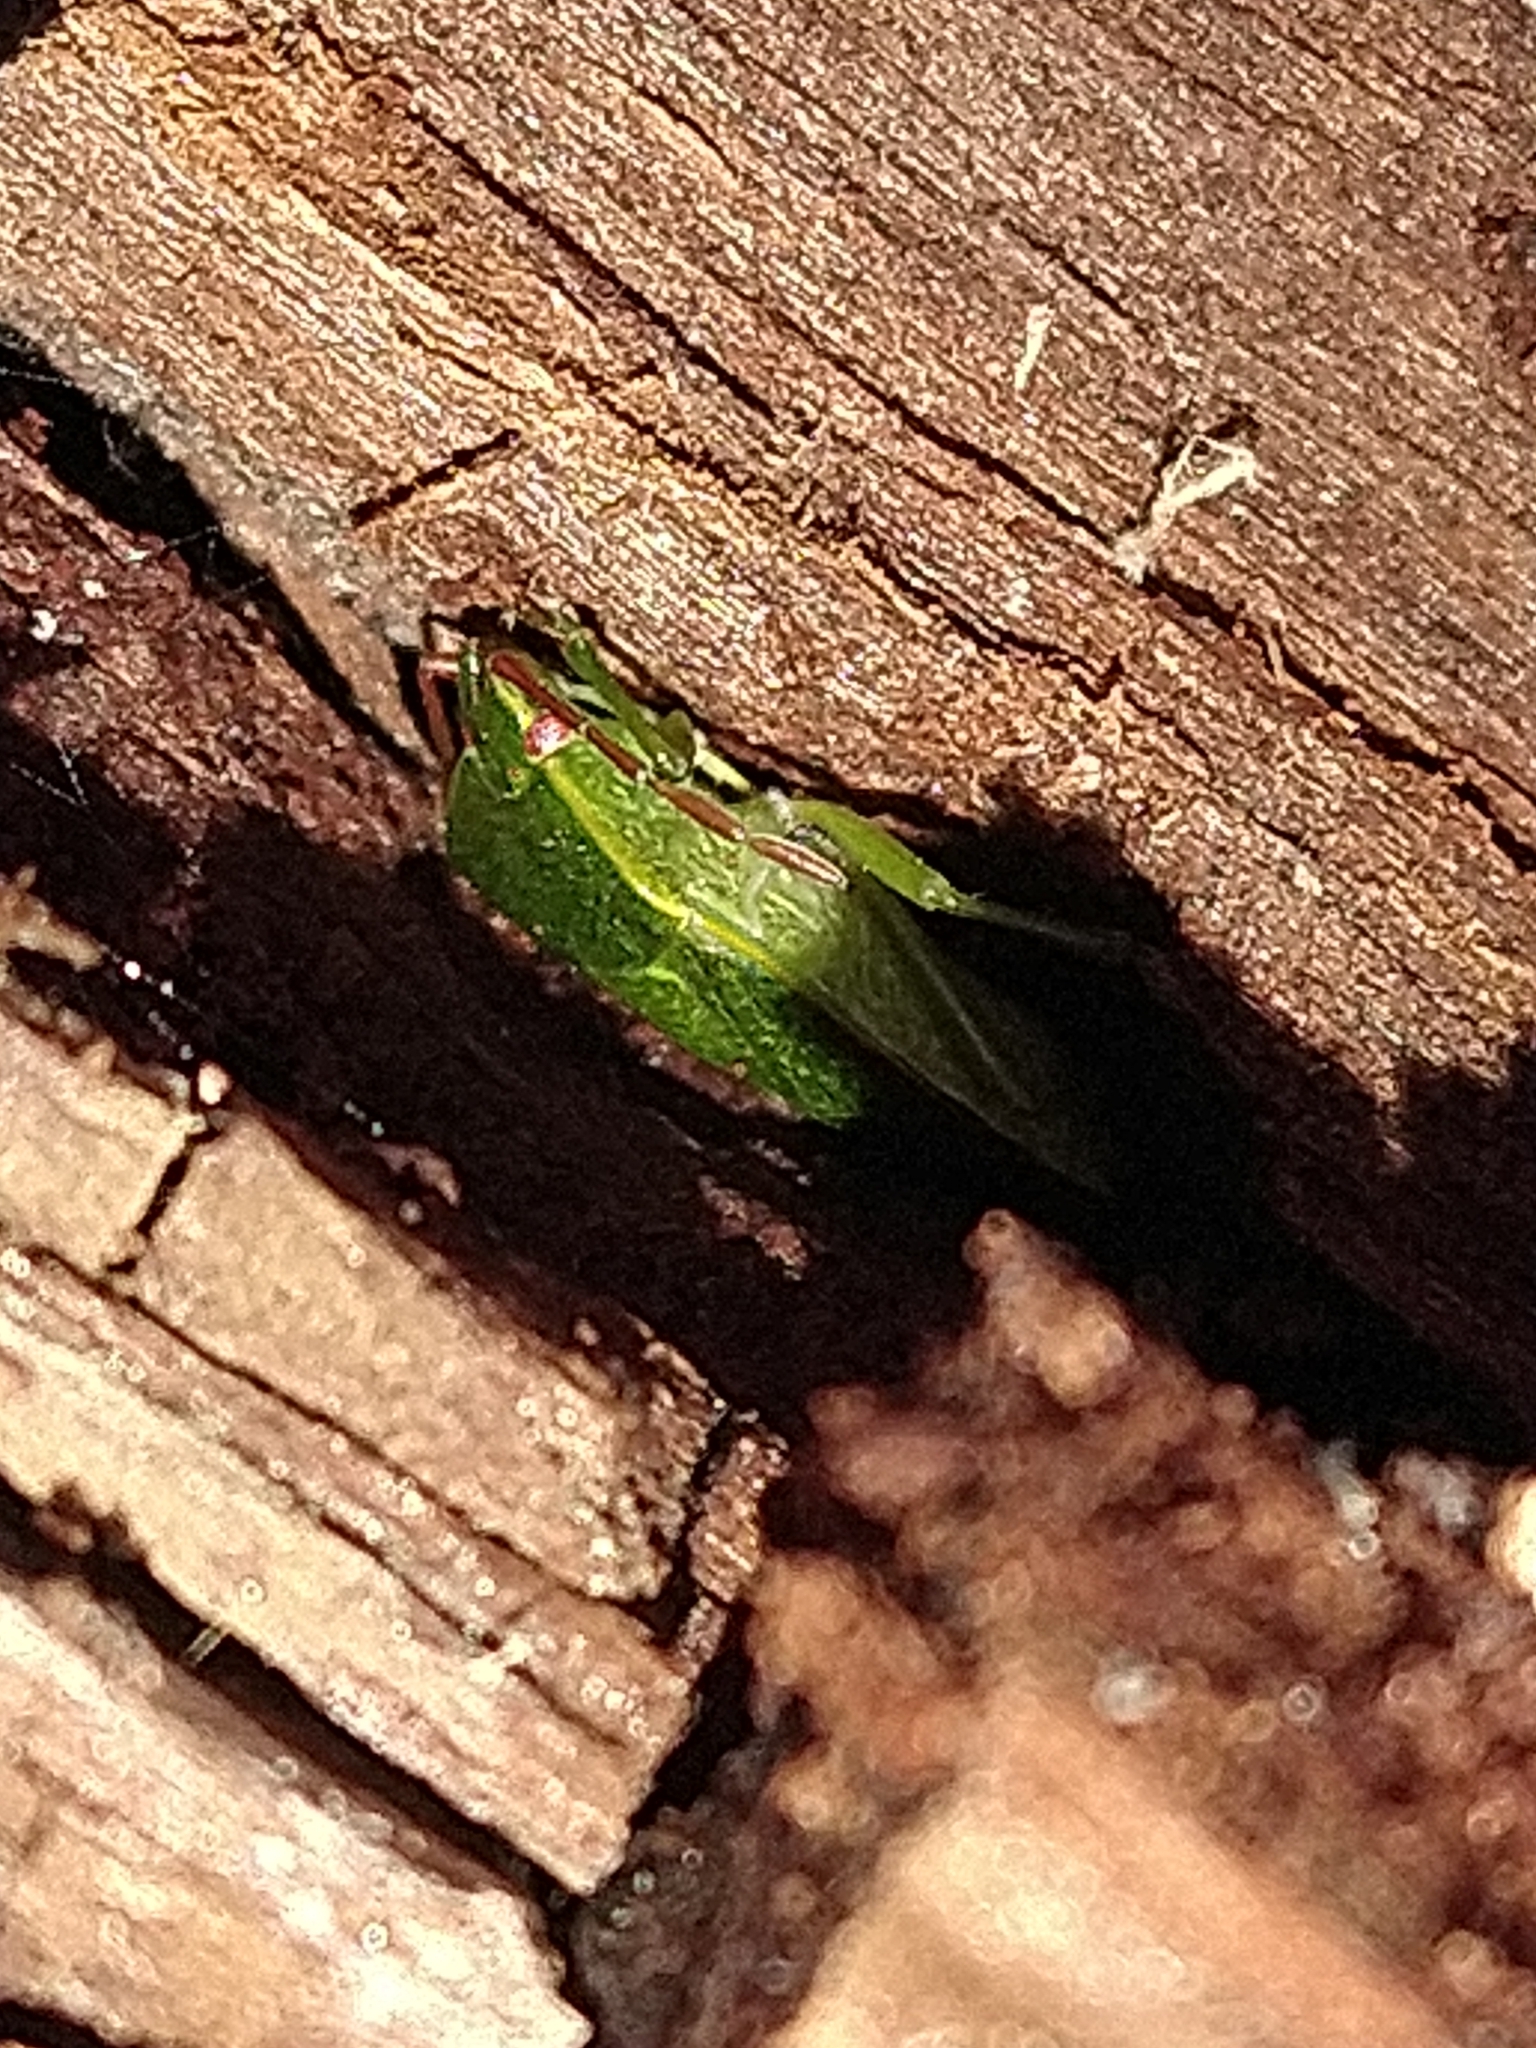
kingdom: Animalia
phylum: Arthropoda
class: Insecta
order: Hemiptera
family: Acanthosomatidae
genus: Sinopla
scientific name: Sinopla perpunctatus
